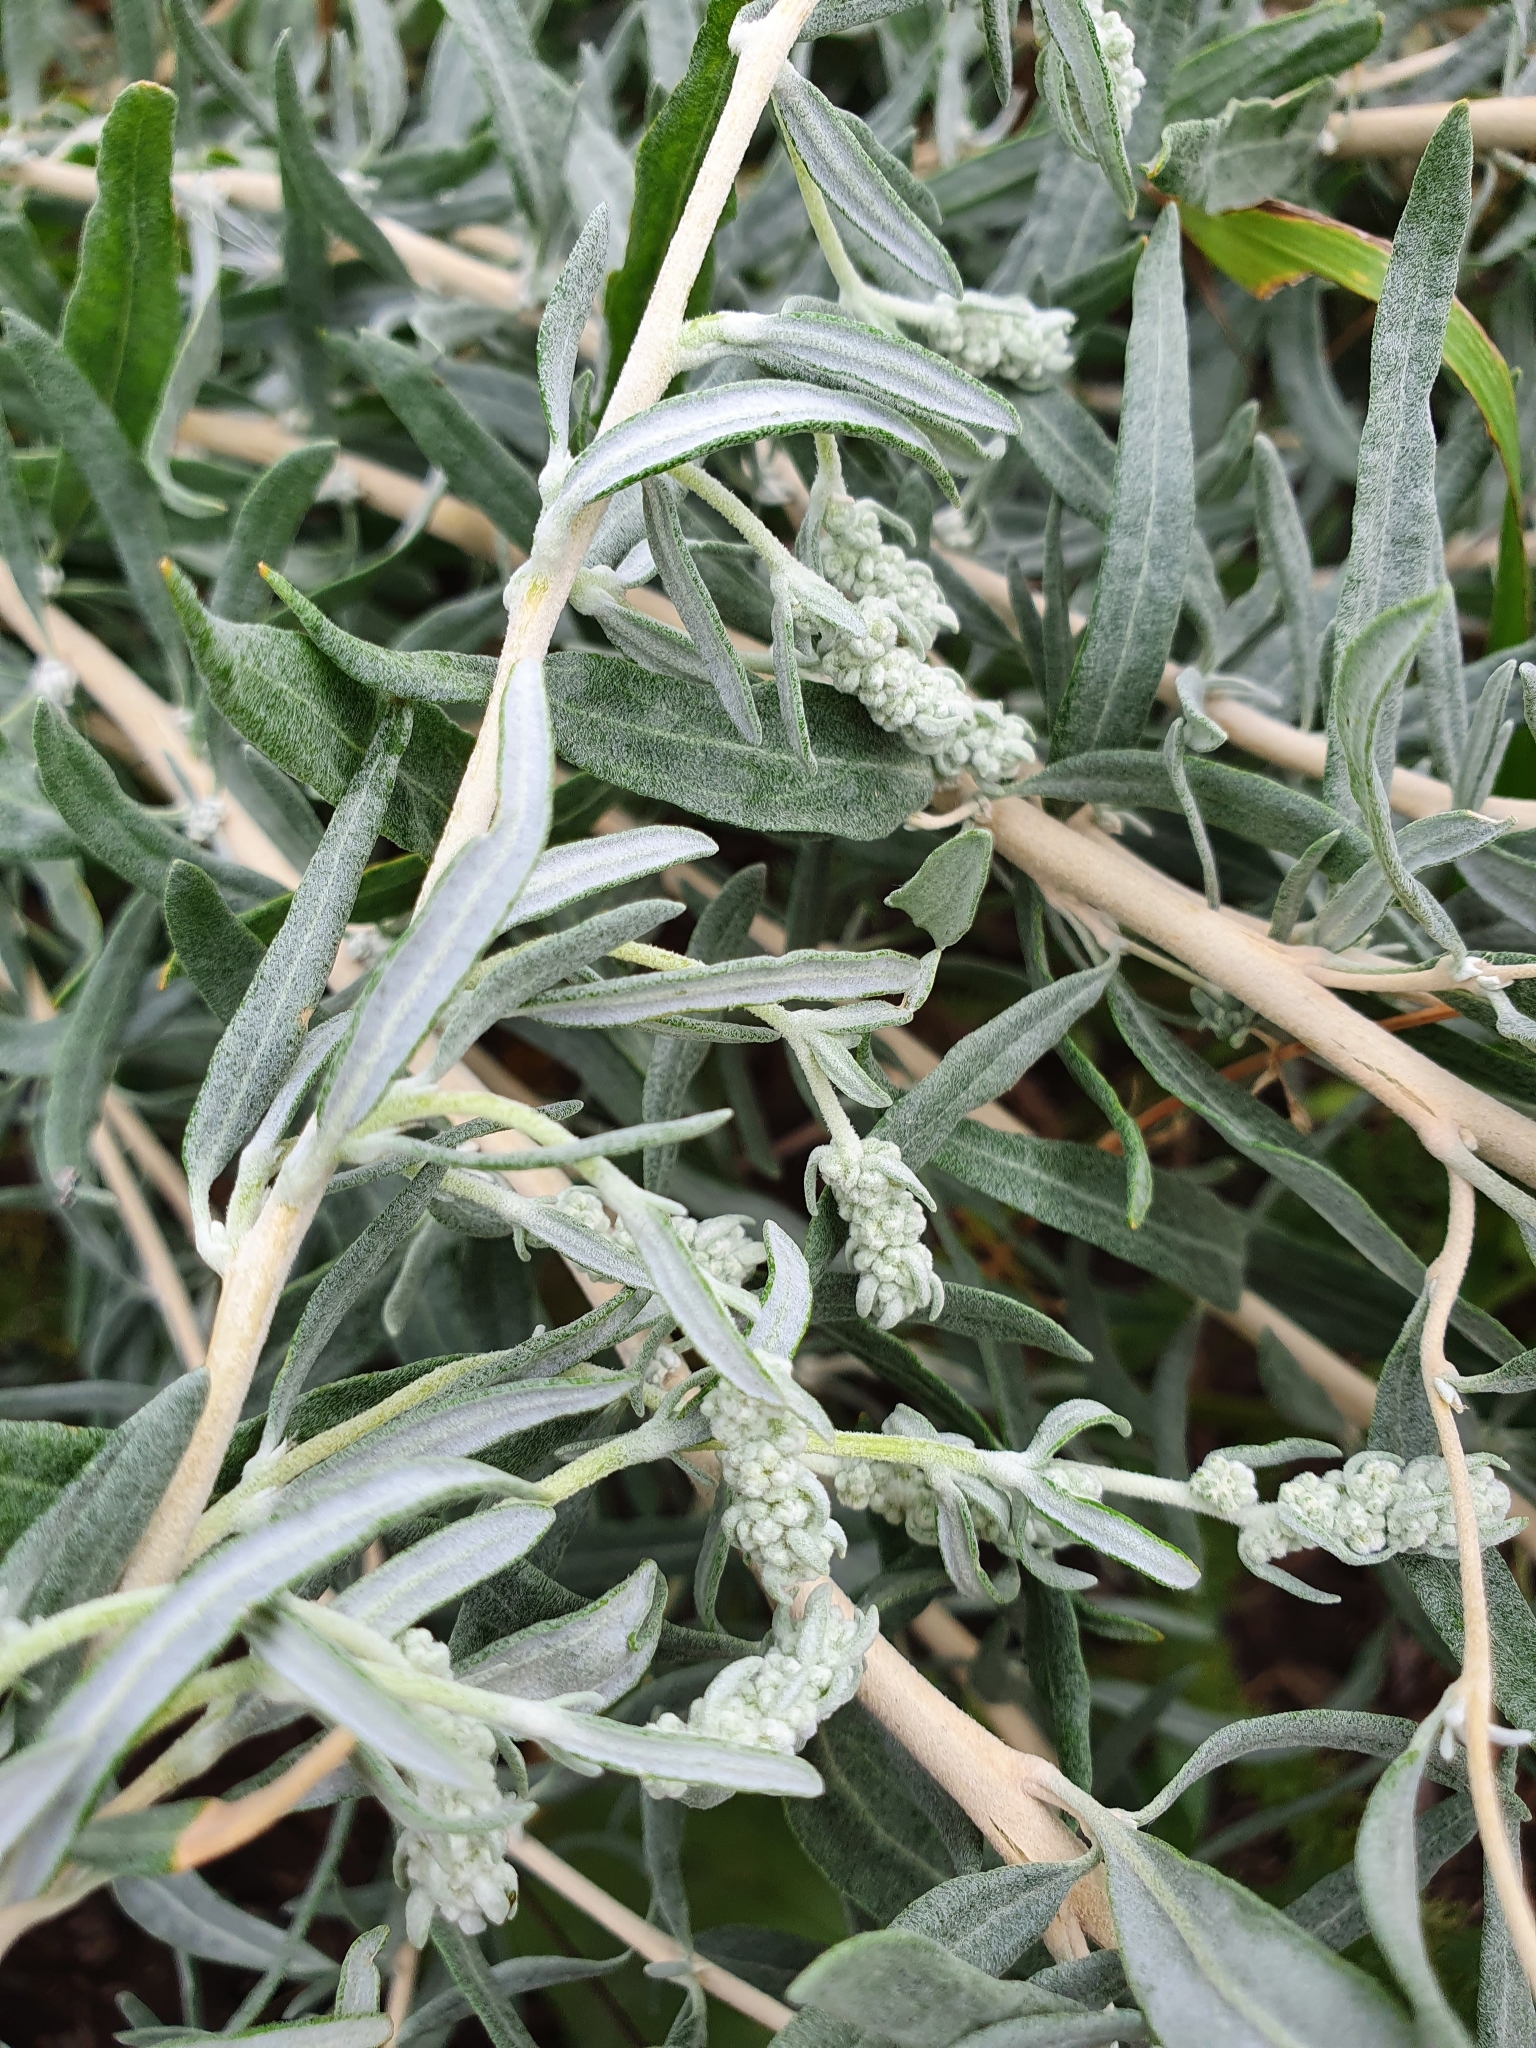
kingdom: Plantae
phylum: Tracheophyta
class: Magnoliopsida
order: Caryophyllales
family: Amaranthaceae
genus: Krascheninnikovia
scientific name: Krascheninnikovia ceratoides
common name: Pamirian winterfat
